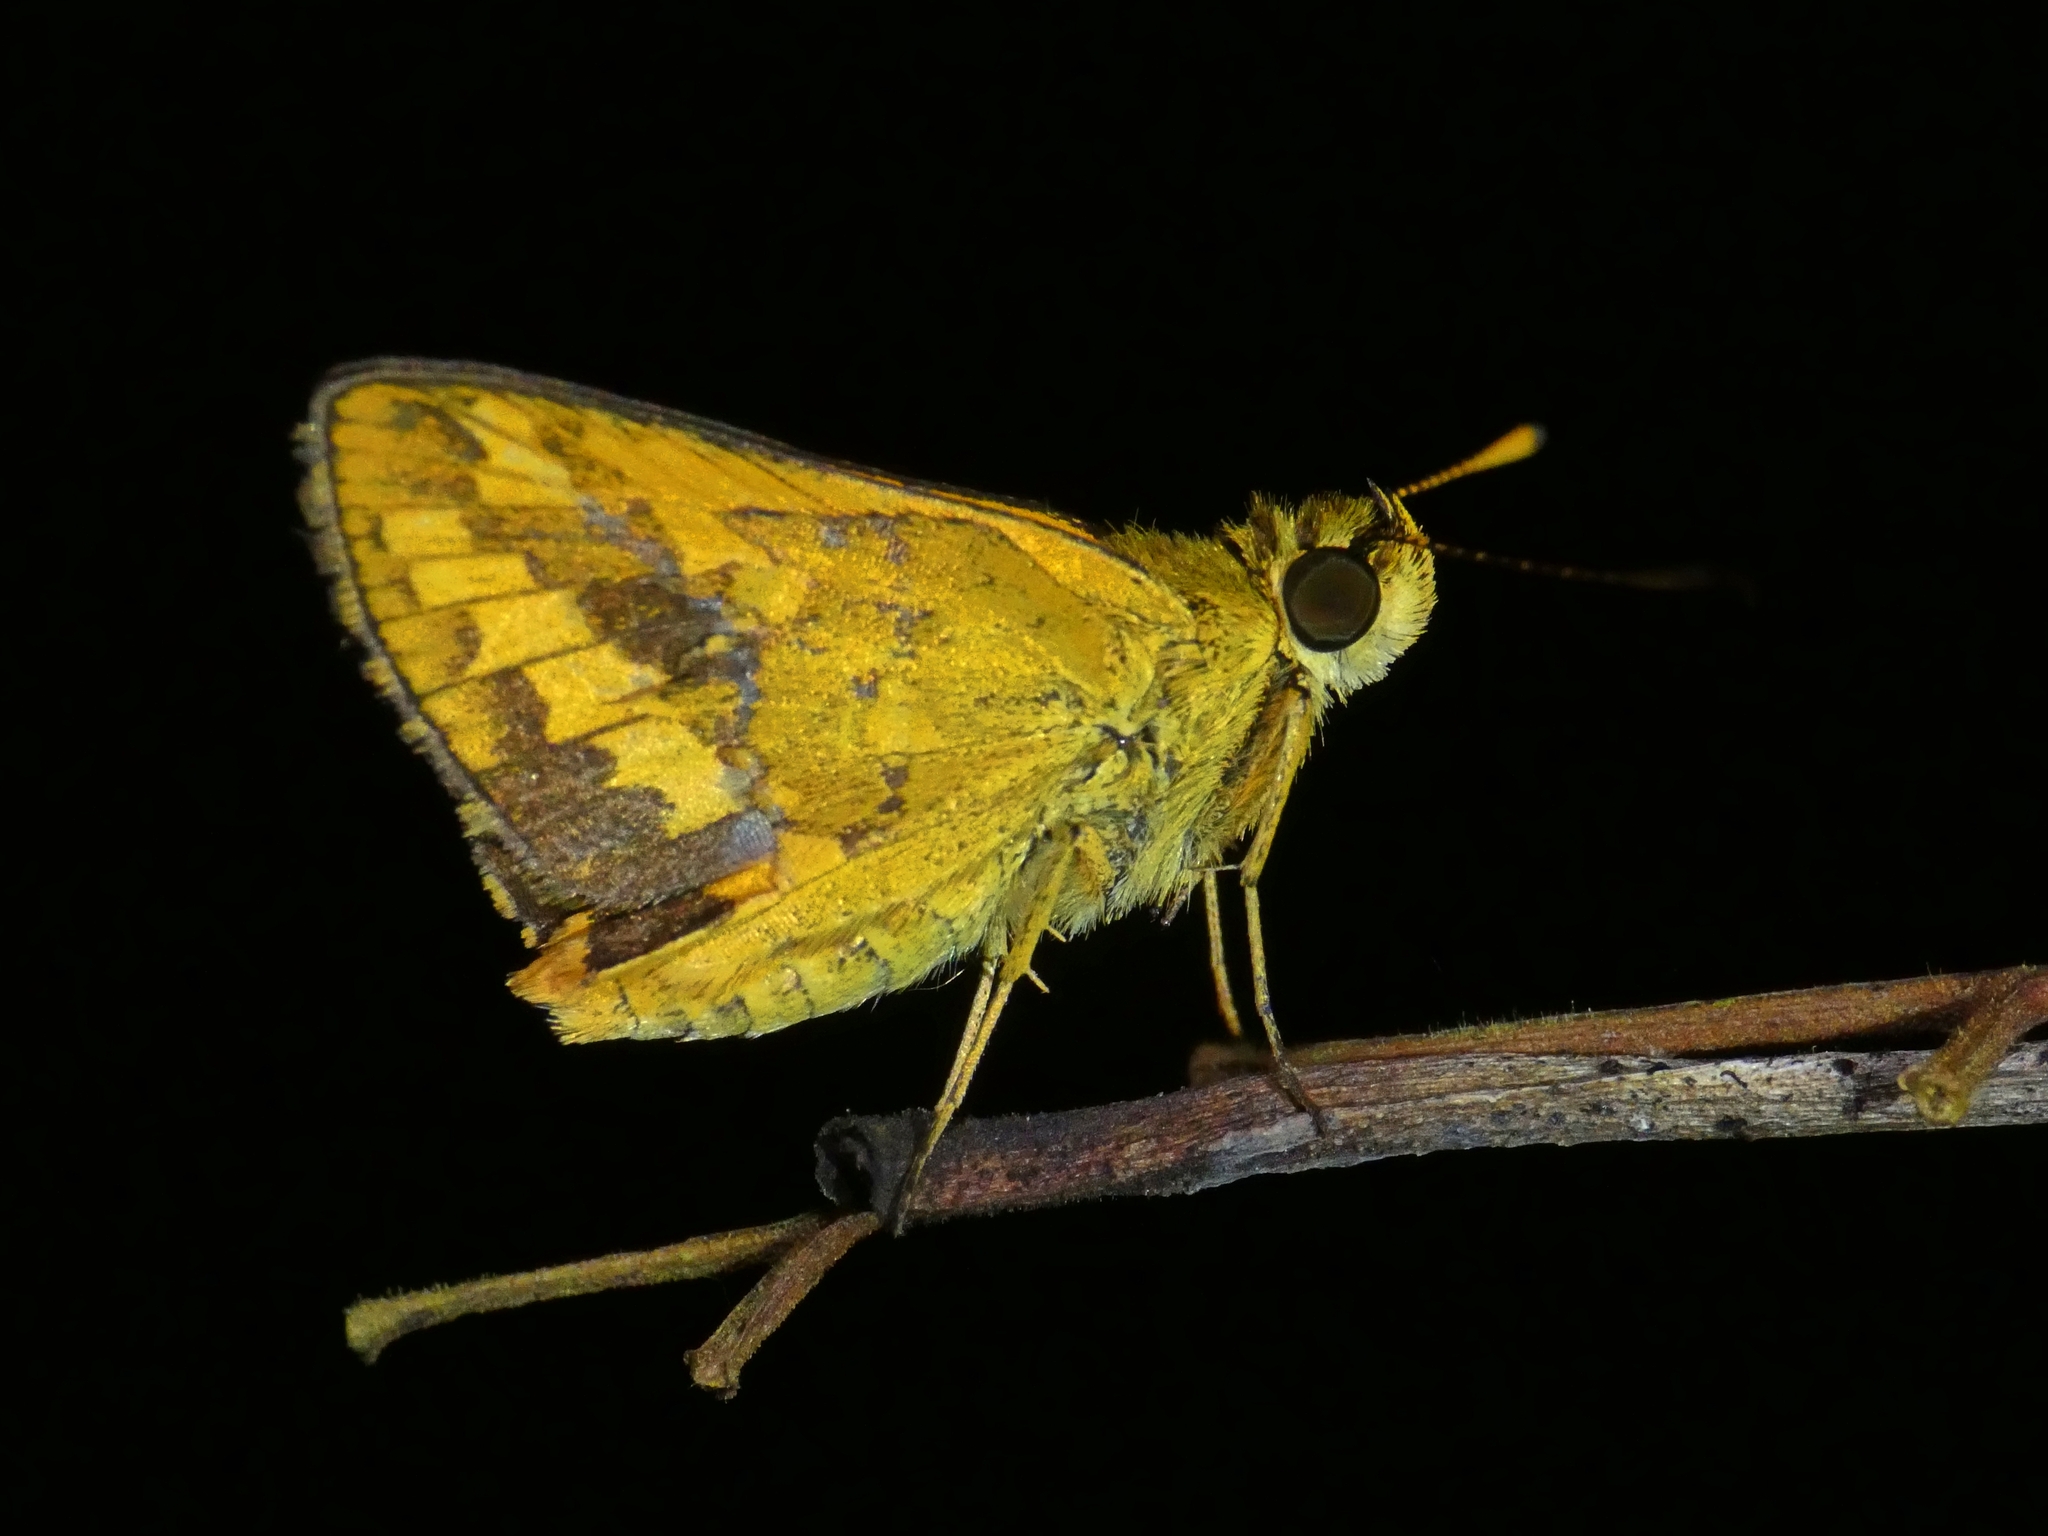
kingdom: Animalia
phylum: Arthropoda
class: Insecta
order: Lepidoptera
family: Hesperiidae
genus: Suniana
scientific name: Suniana sunias
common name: Wide-brand grass-dart
